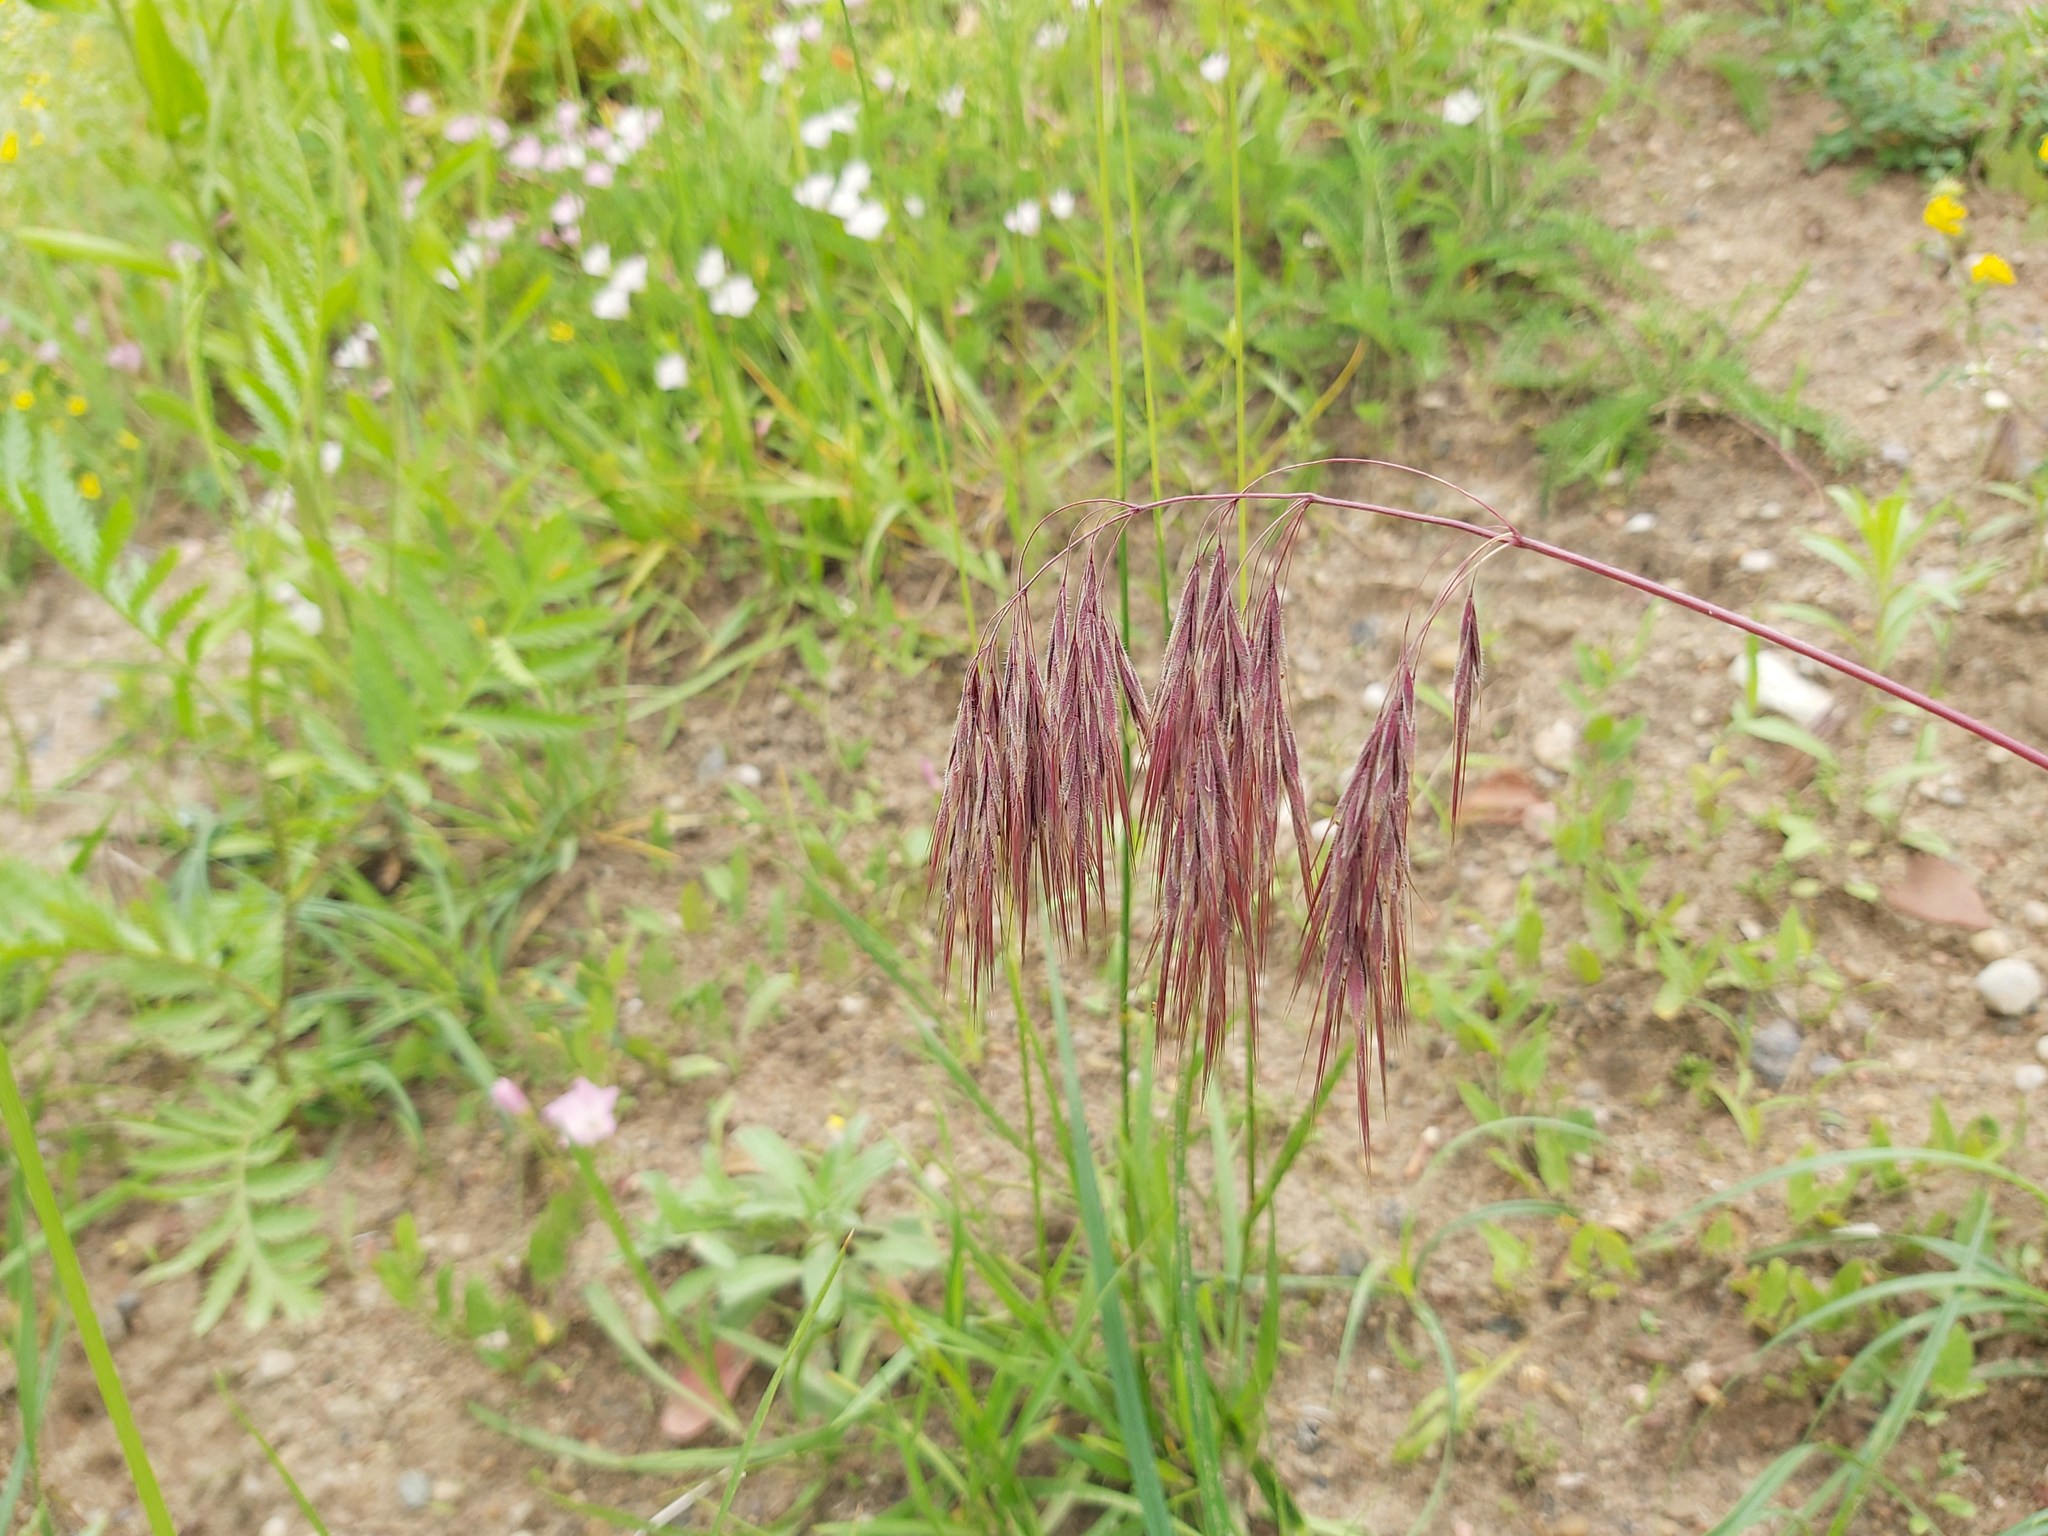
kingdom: Plantae
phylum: Tracheophyta
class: Liliopsida
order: Poales
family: Poaceae
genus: Bromus
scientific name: Bromus tectorum
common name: Cheatgrass
